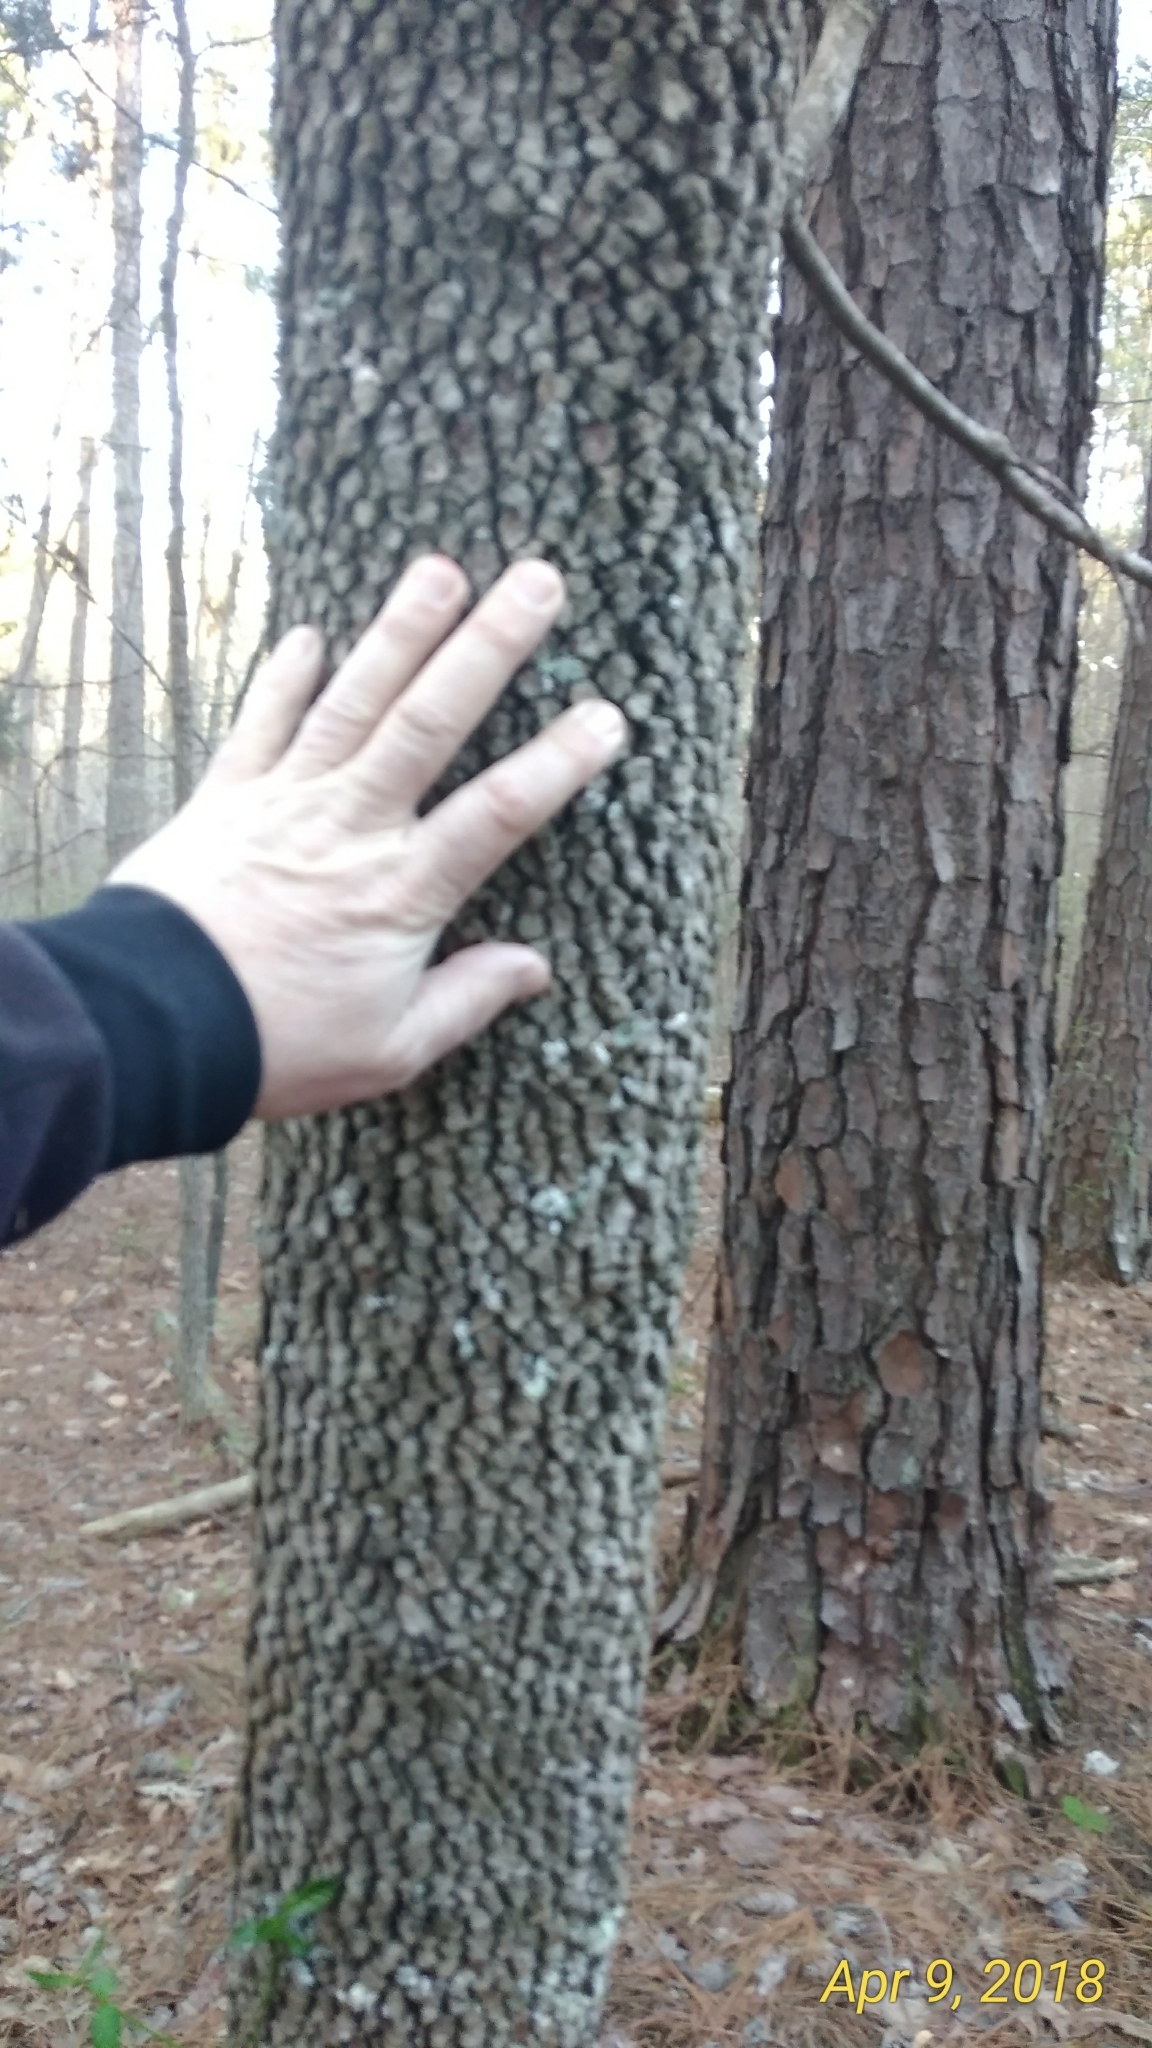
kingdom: Plantae
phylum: Tracheophyta
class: Magnoliopsida
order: Cornales
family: Cornaceae
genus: Cornus
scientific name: Cornus florida
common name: Flowering dogwood
